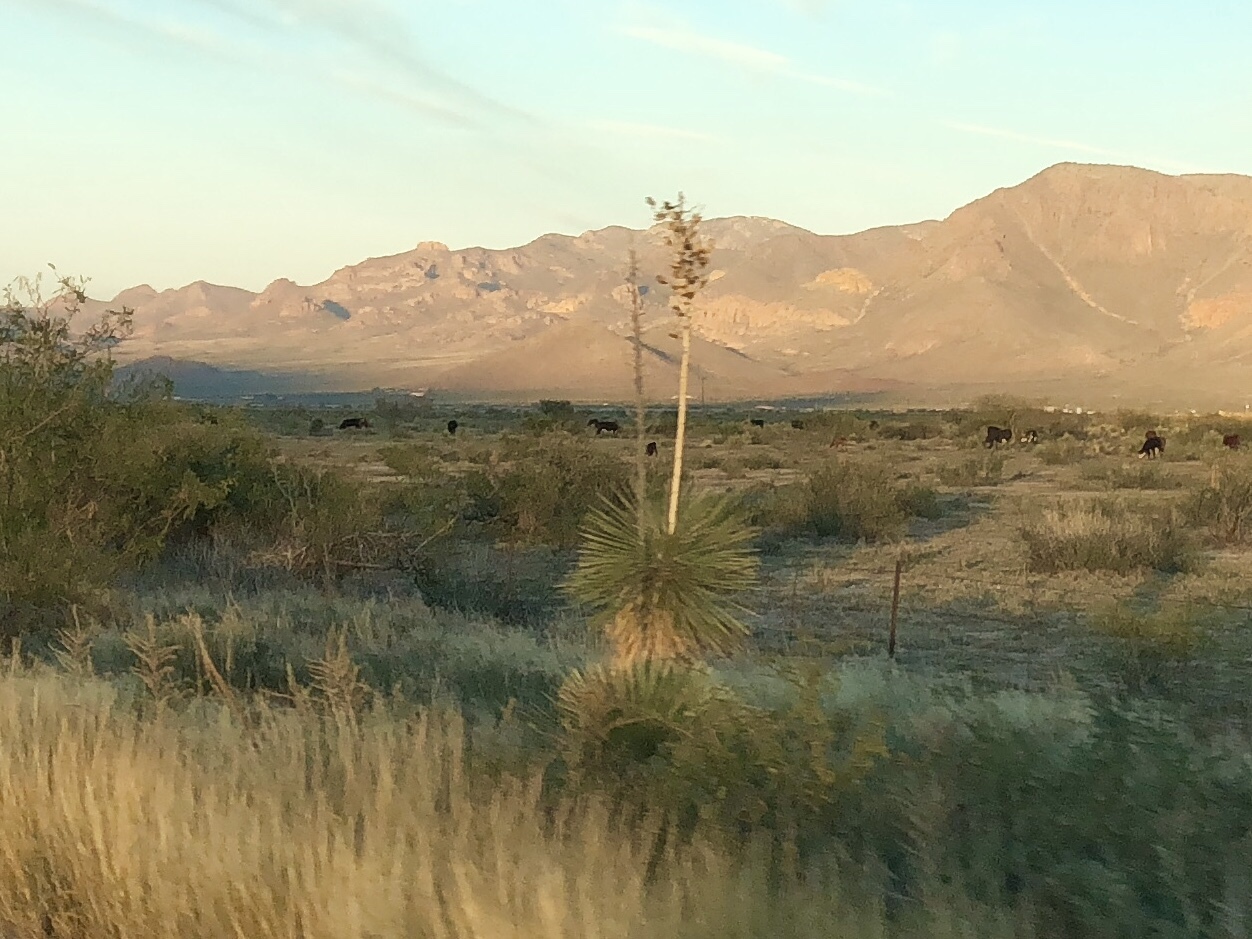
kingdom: Plantae
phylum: Tracheophyta
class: Liliopsida
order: Asparagales
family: Asparagaceae
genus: Yucca
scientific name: Yucca elata
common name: Palmella
